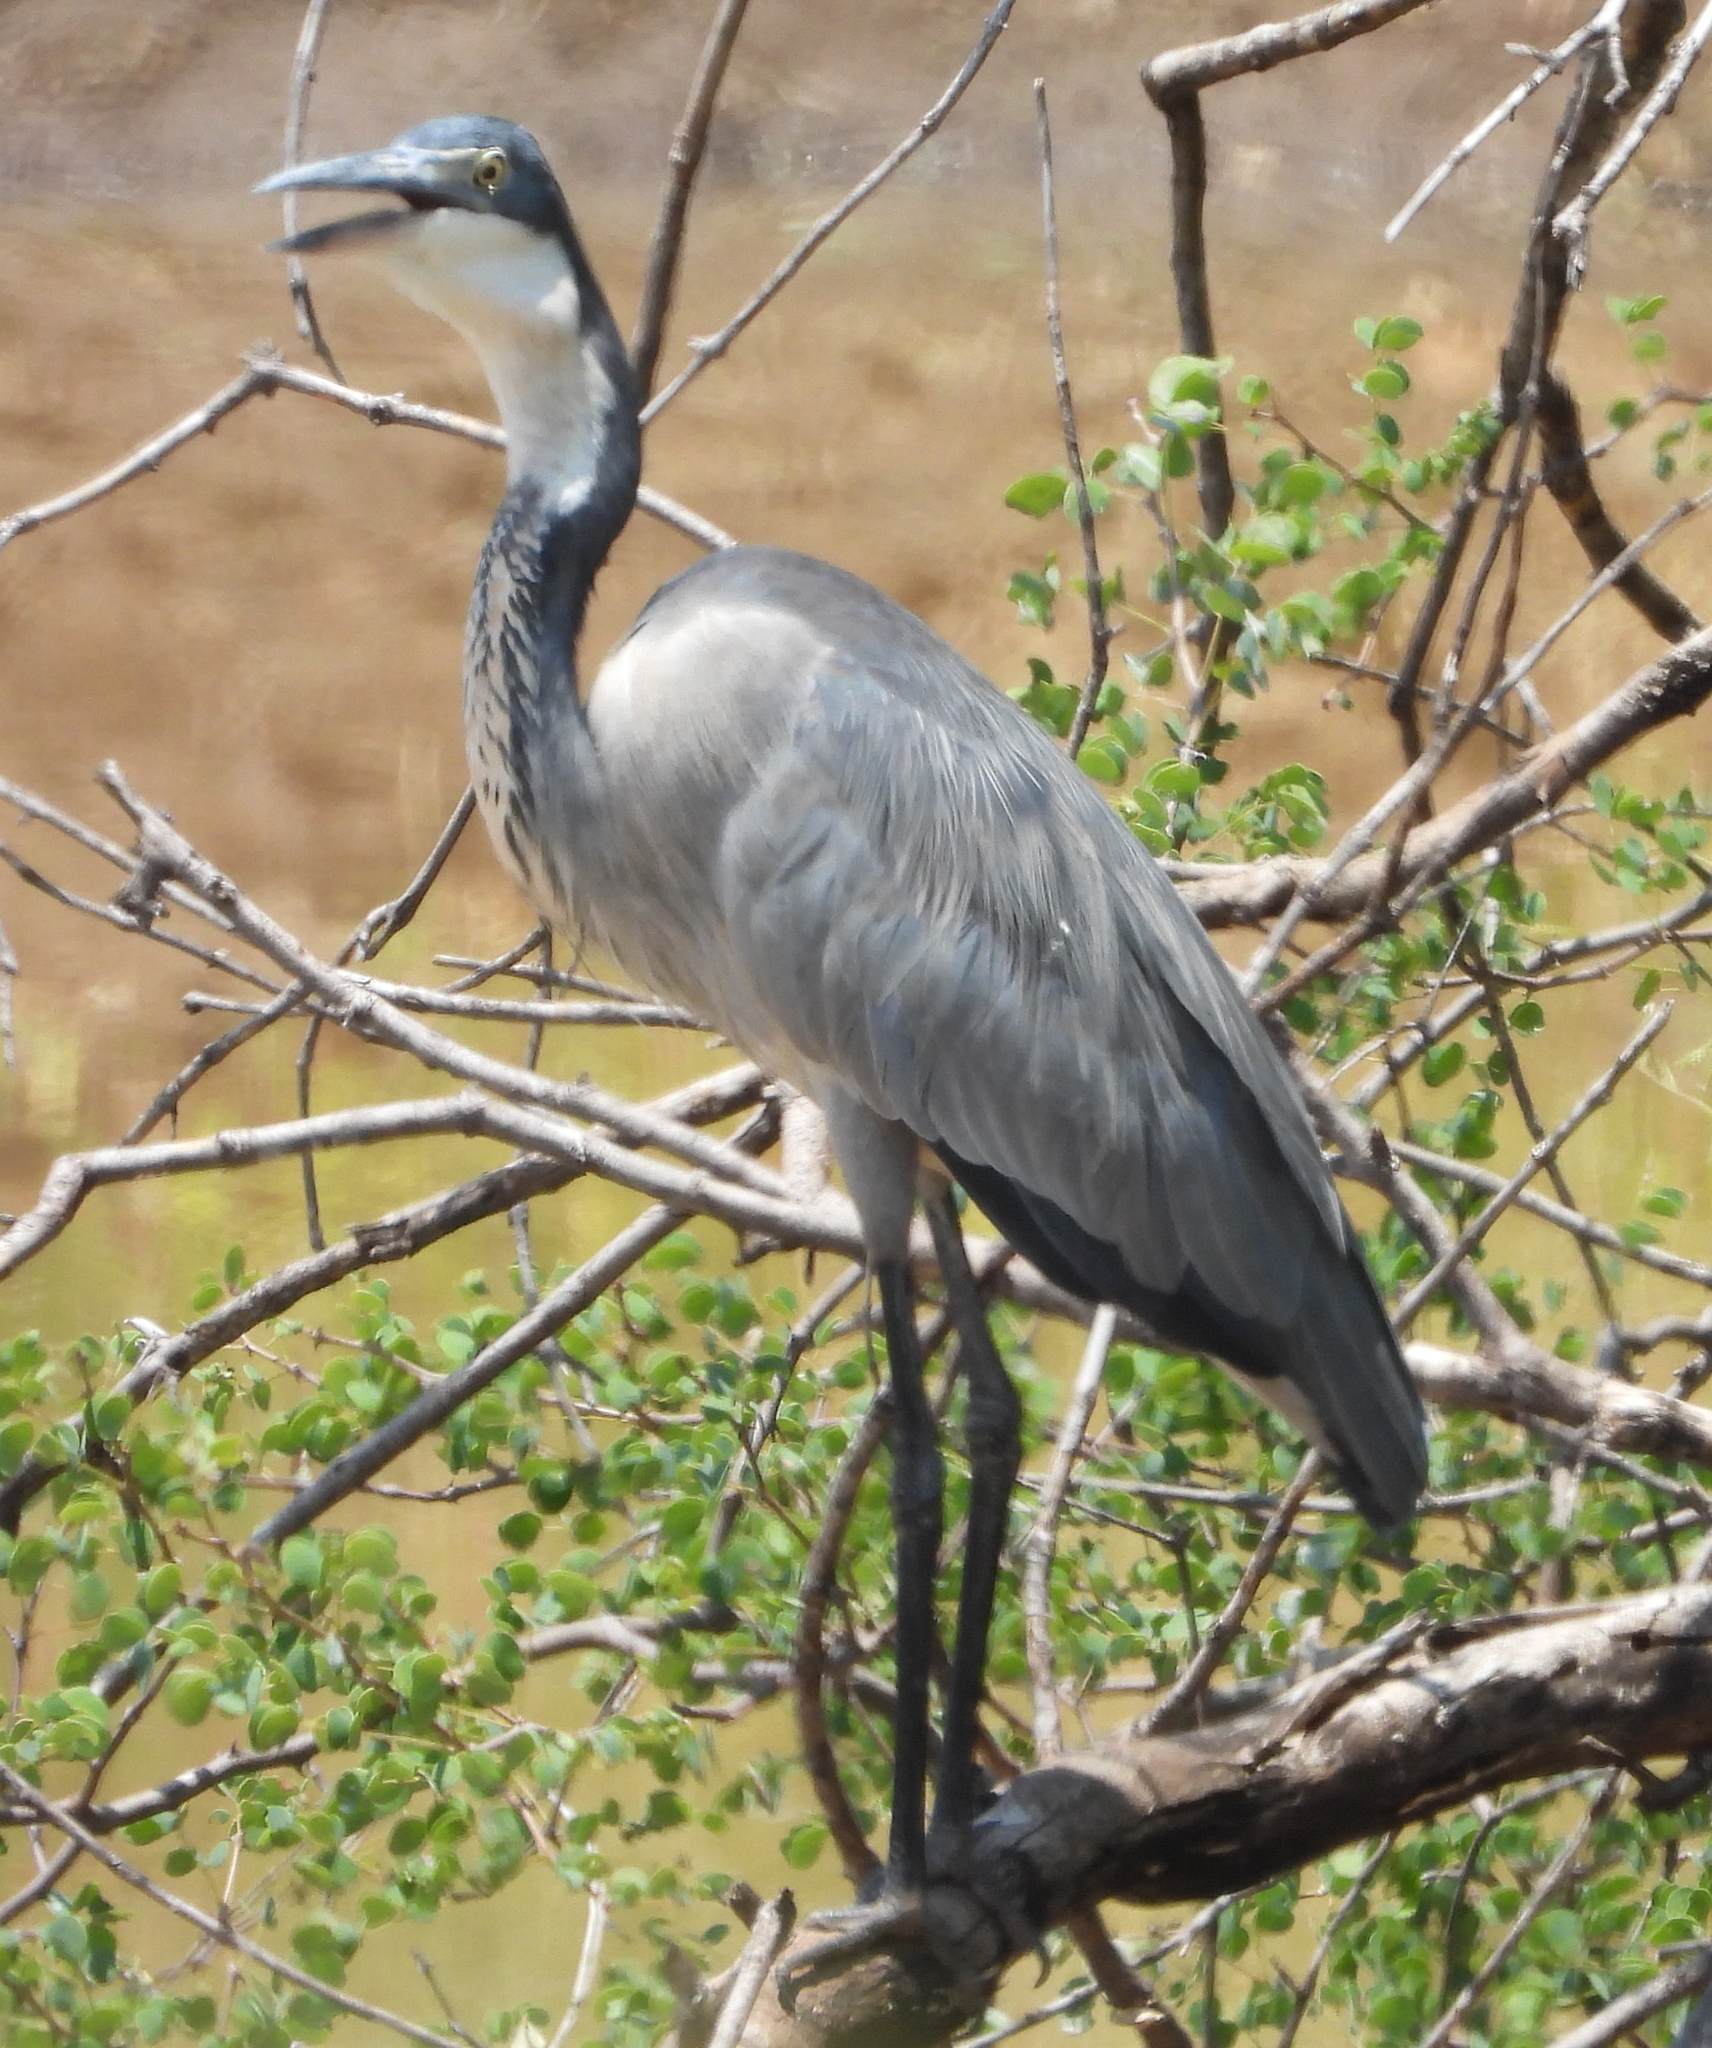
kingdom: Animalia
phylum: Chordata
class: Aves
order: Pelecaniformes
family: Ardeidae
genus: Ardea
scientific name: Ardea melanocephala
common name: Black-headed heron
